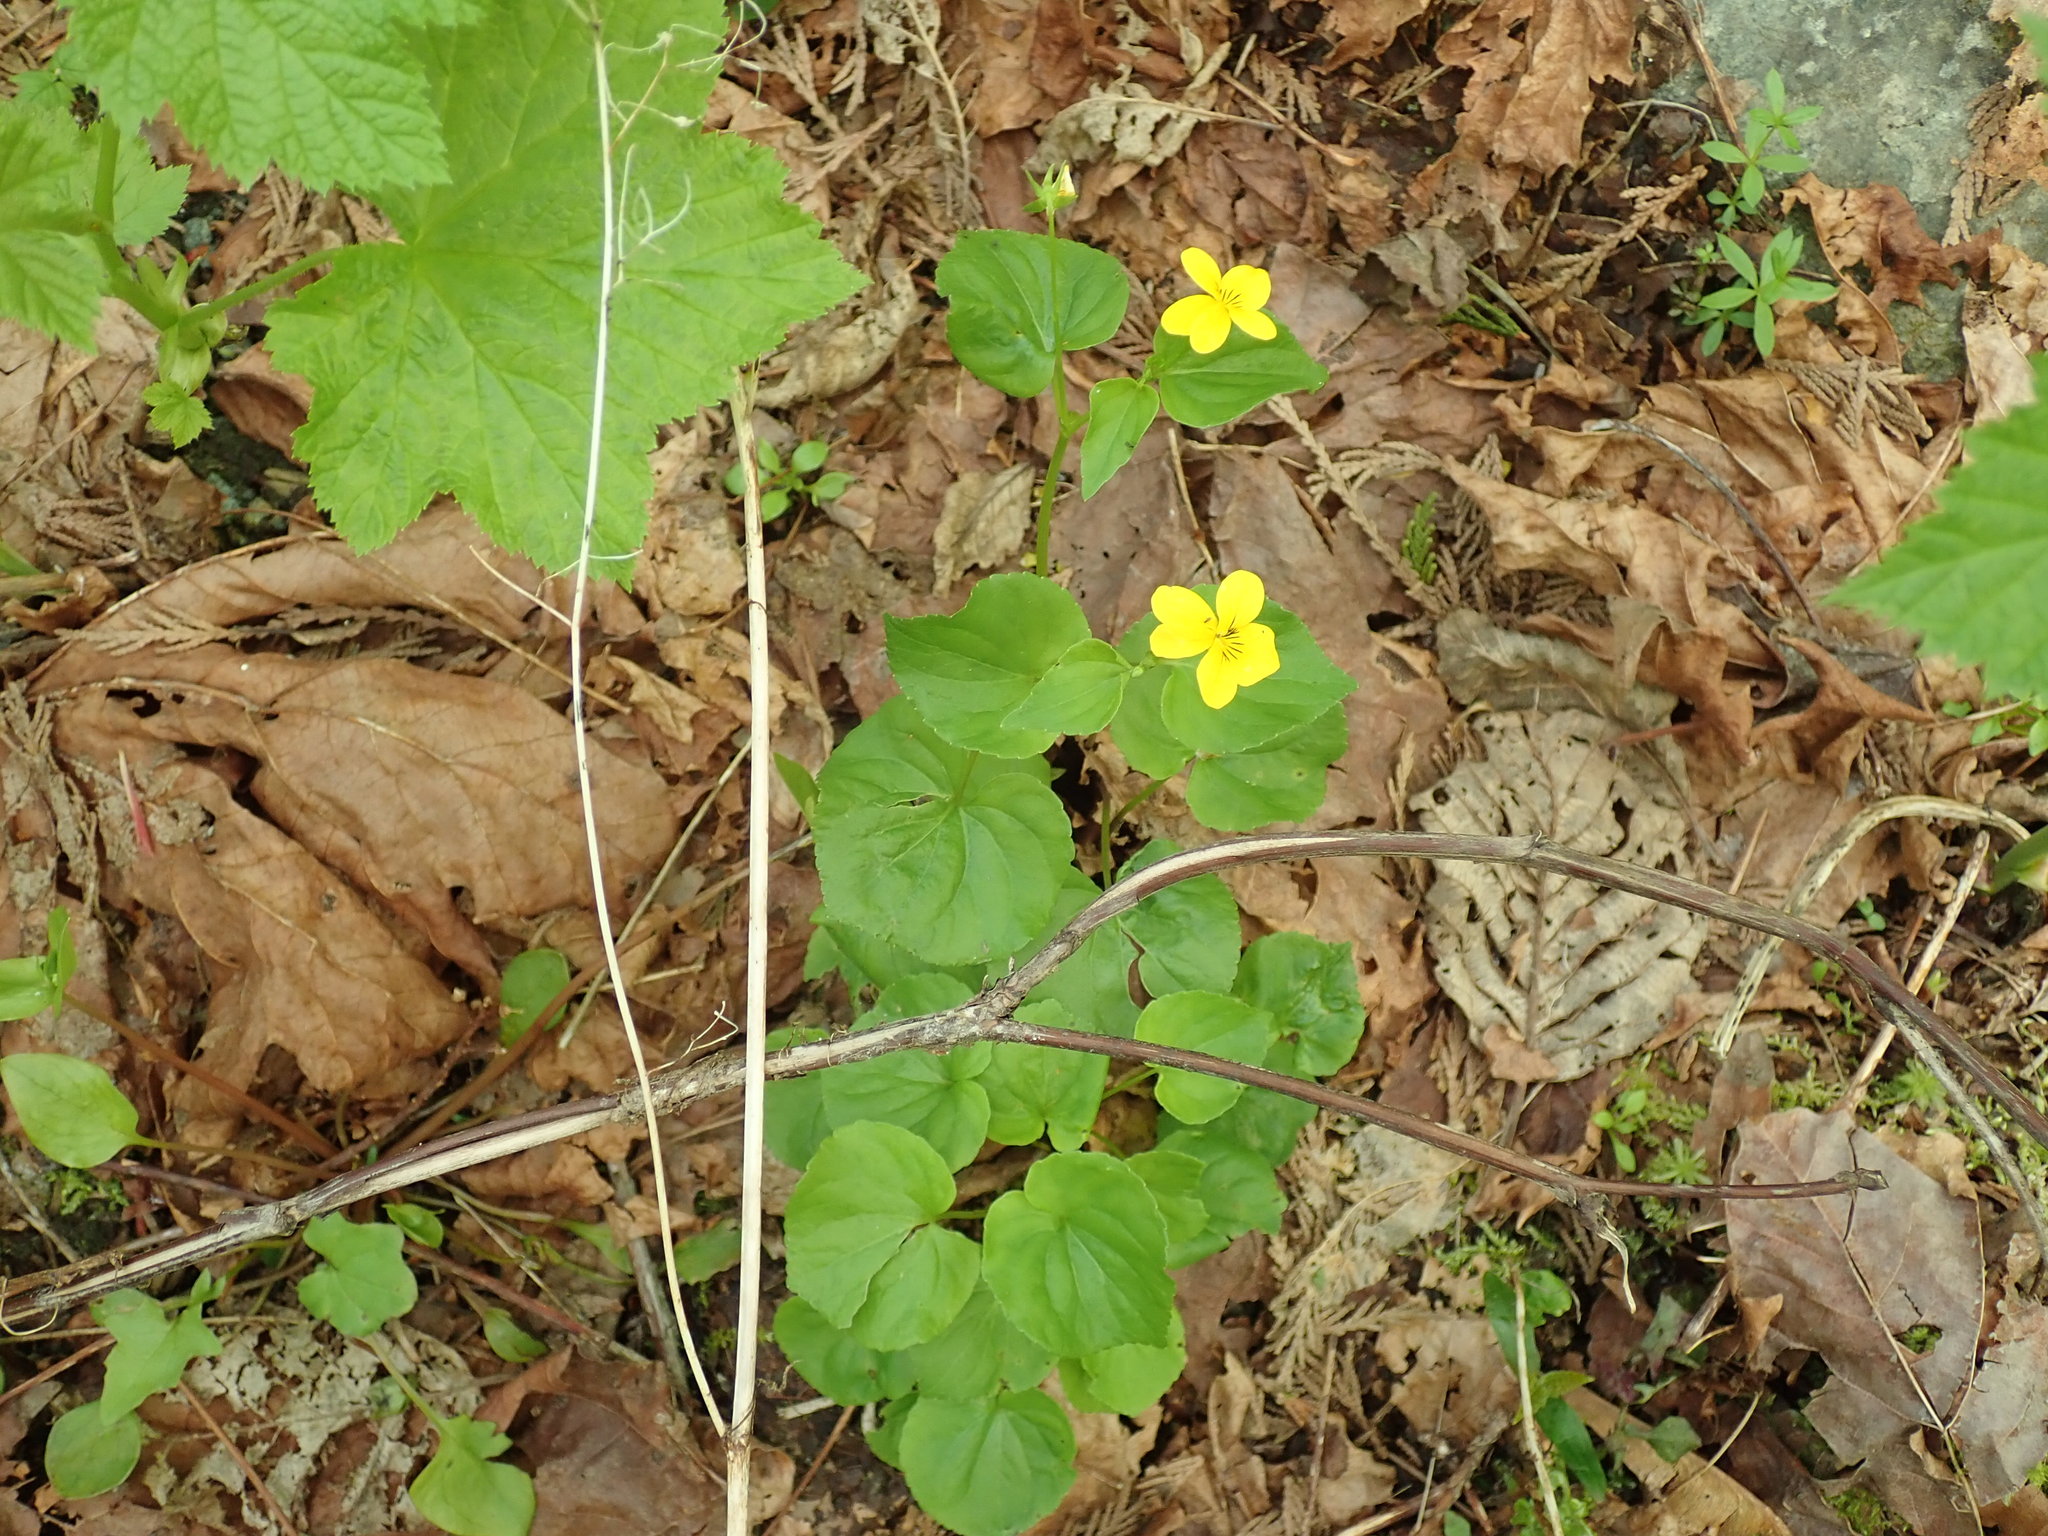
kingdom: Plantae
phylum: Tracheophyta
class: Magnoliopsida
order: Malpighiales
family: Violaceae
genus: Viola
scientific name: Viola glabella
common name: Stream violet
